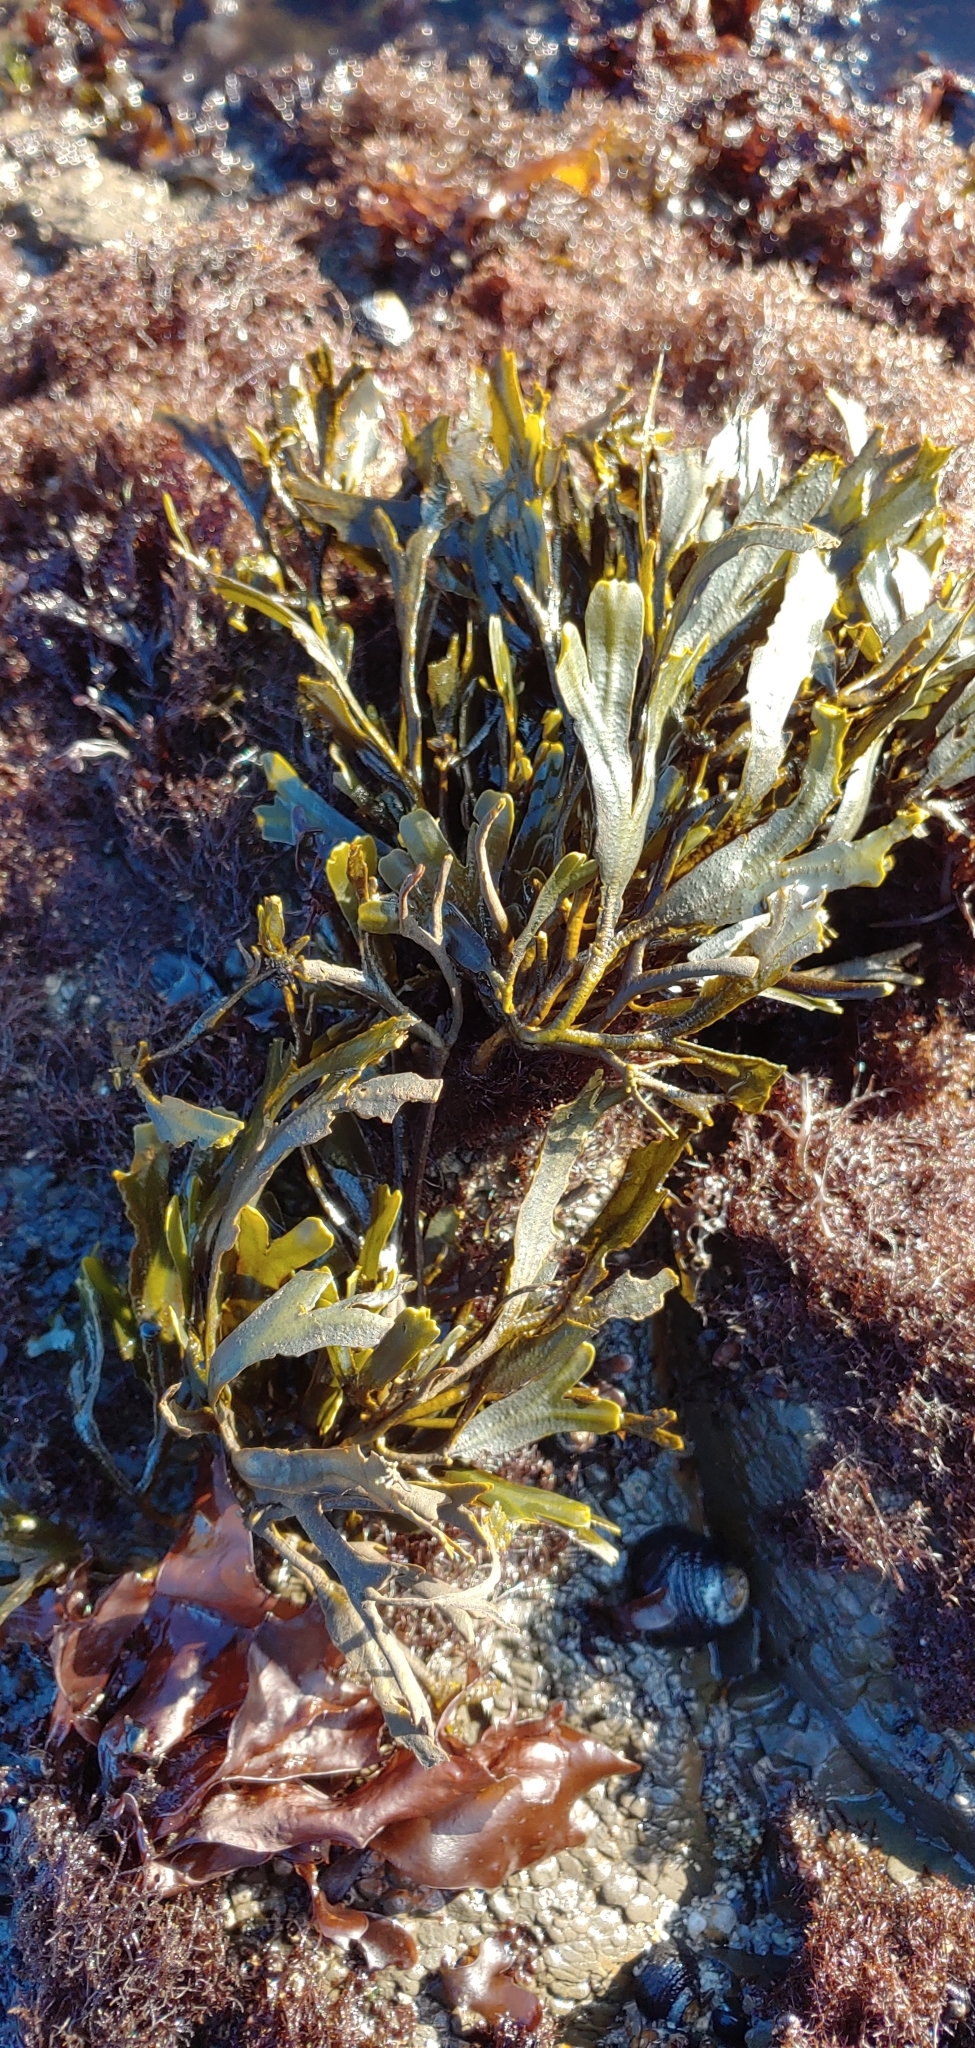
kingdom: Chromista
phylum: Ochrophyta
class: Phaeophyceae
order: Fucales
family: Fucaceae
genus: Fucus
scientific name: Fucus distichus
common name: Rockweed
